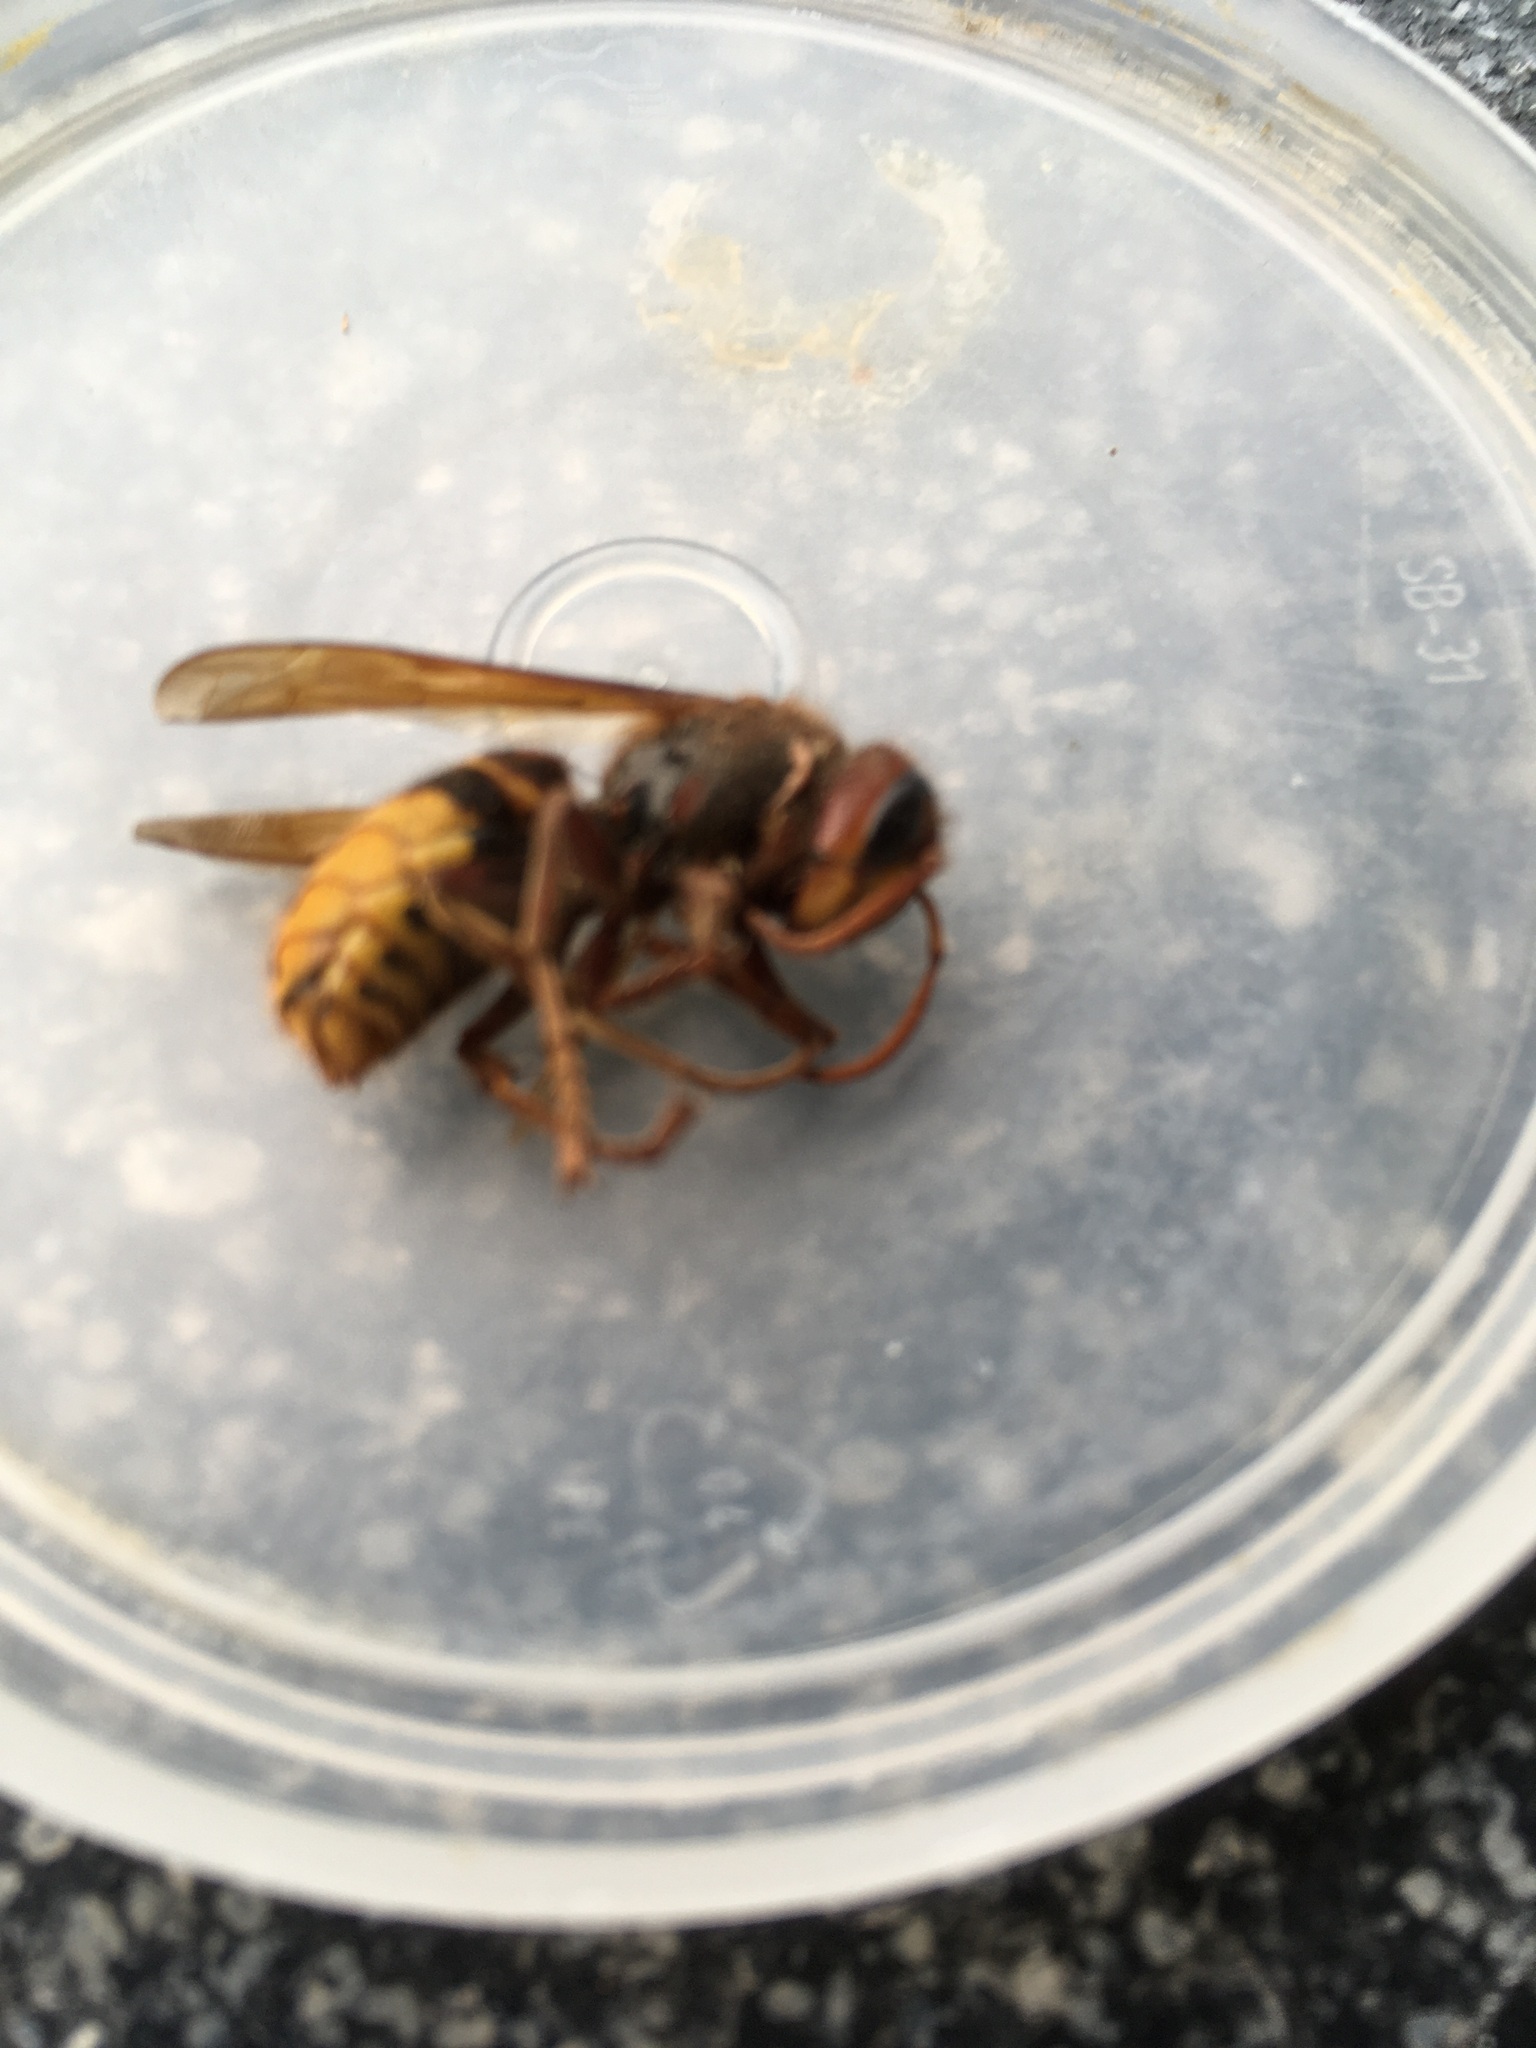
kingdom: Animalia
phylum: Arthropoda
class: Insecta
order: Hymenoptera
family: Vespidae
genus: Vespa
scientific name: Vespa crabro
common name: Hornet
